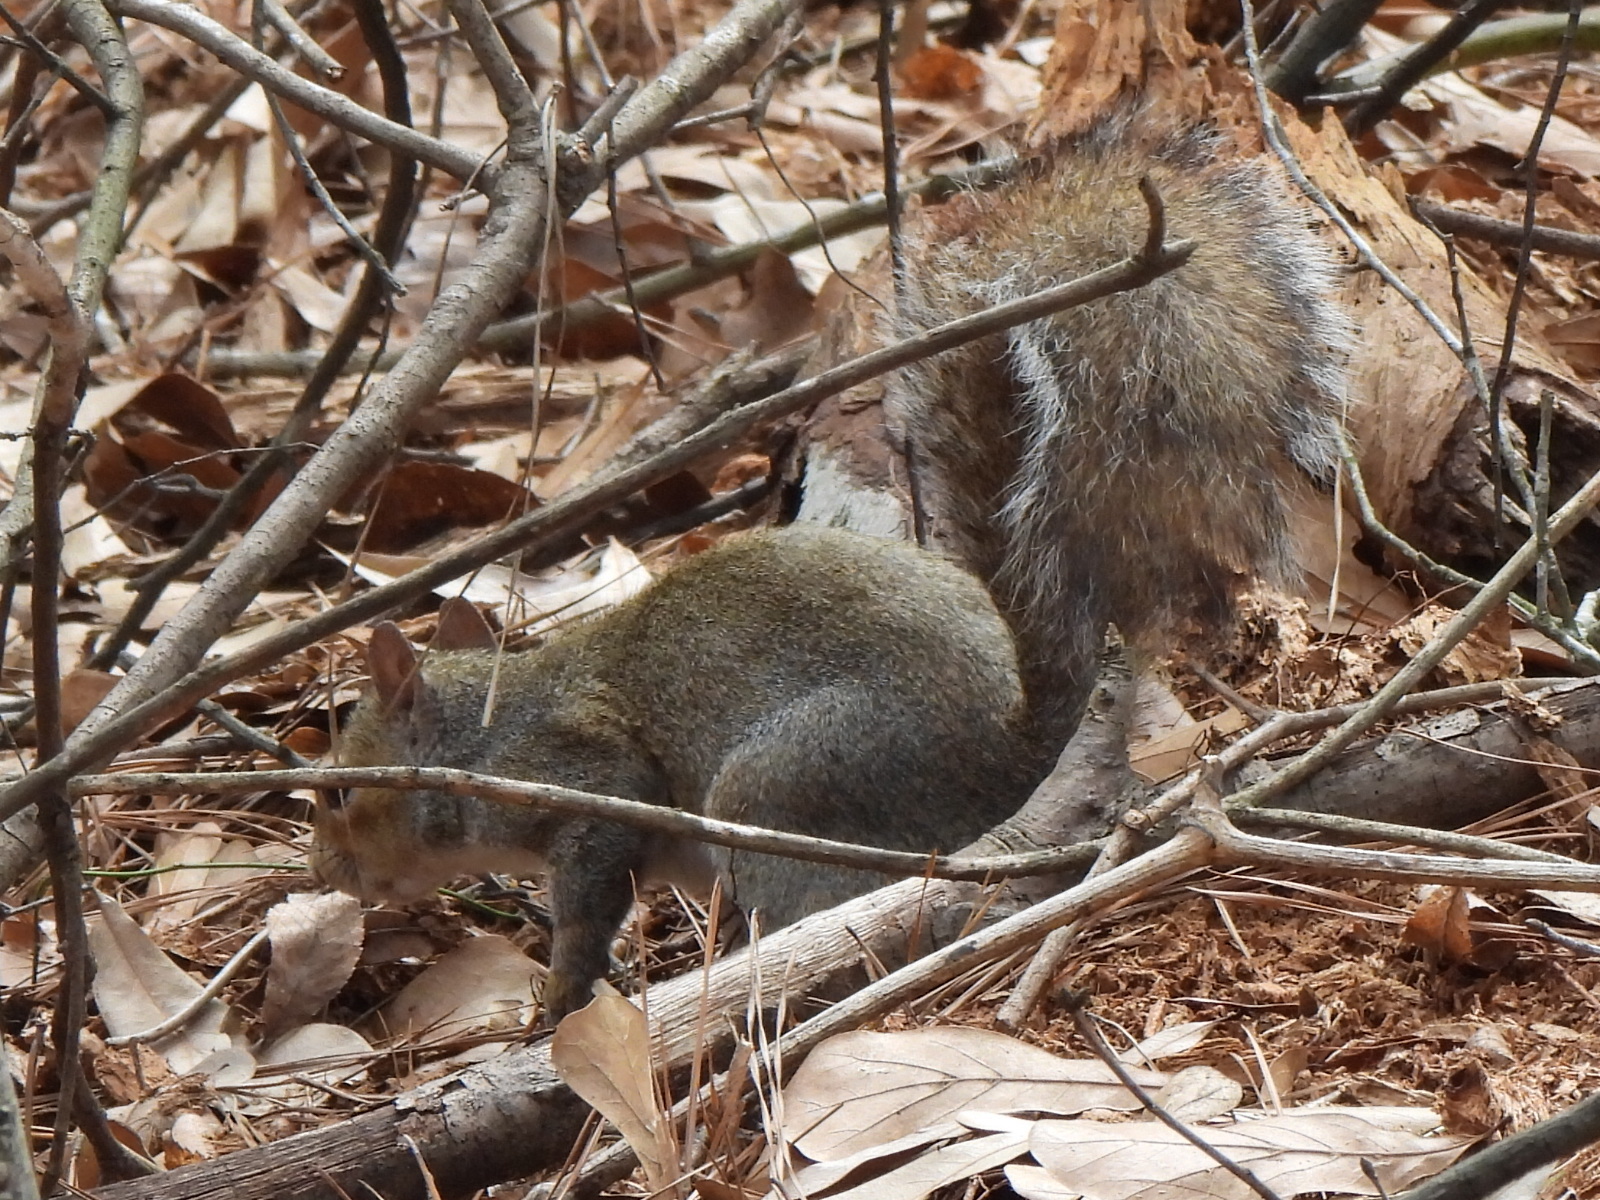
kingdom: Animalia
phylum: Chordata
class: Mammalia
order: Rodentia
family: Sciuridae
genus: Sciurus
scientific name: Sciurus carolinensis
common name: Eastern gray squirrel
